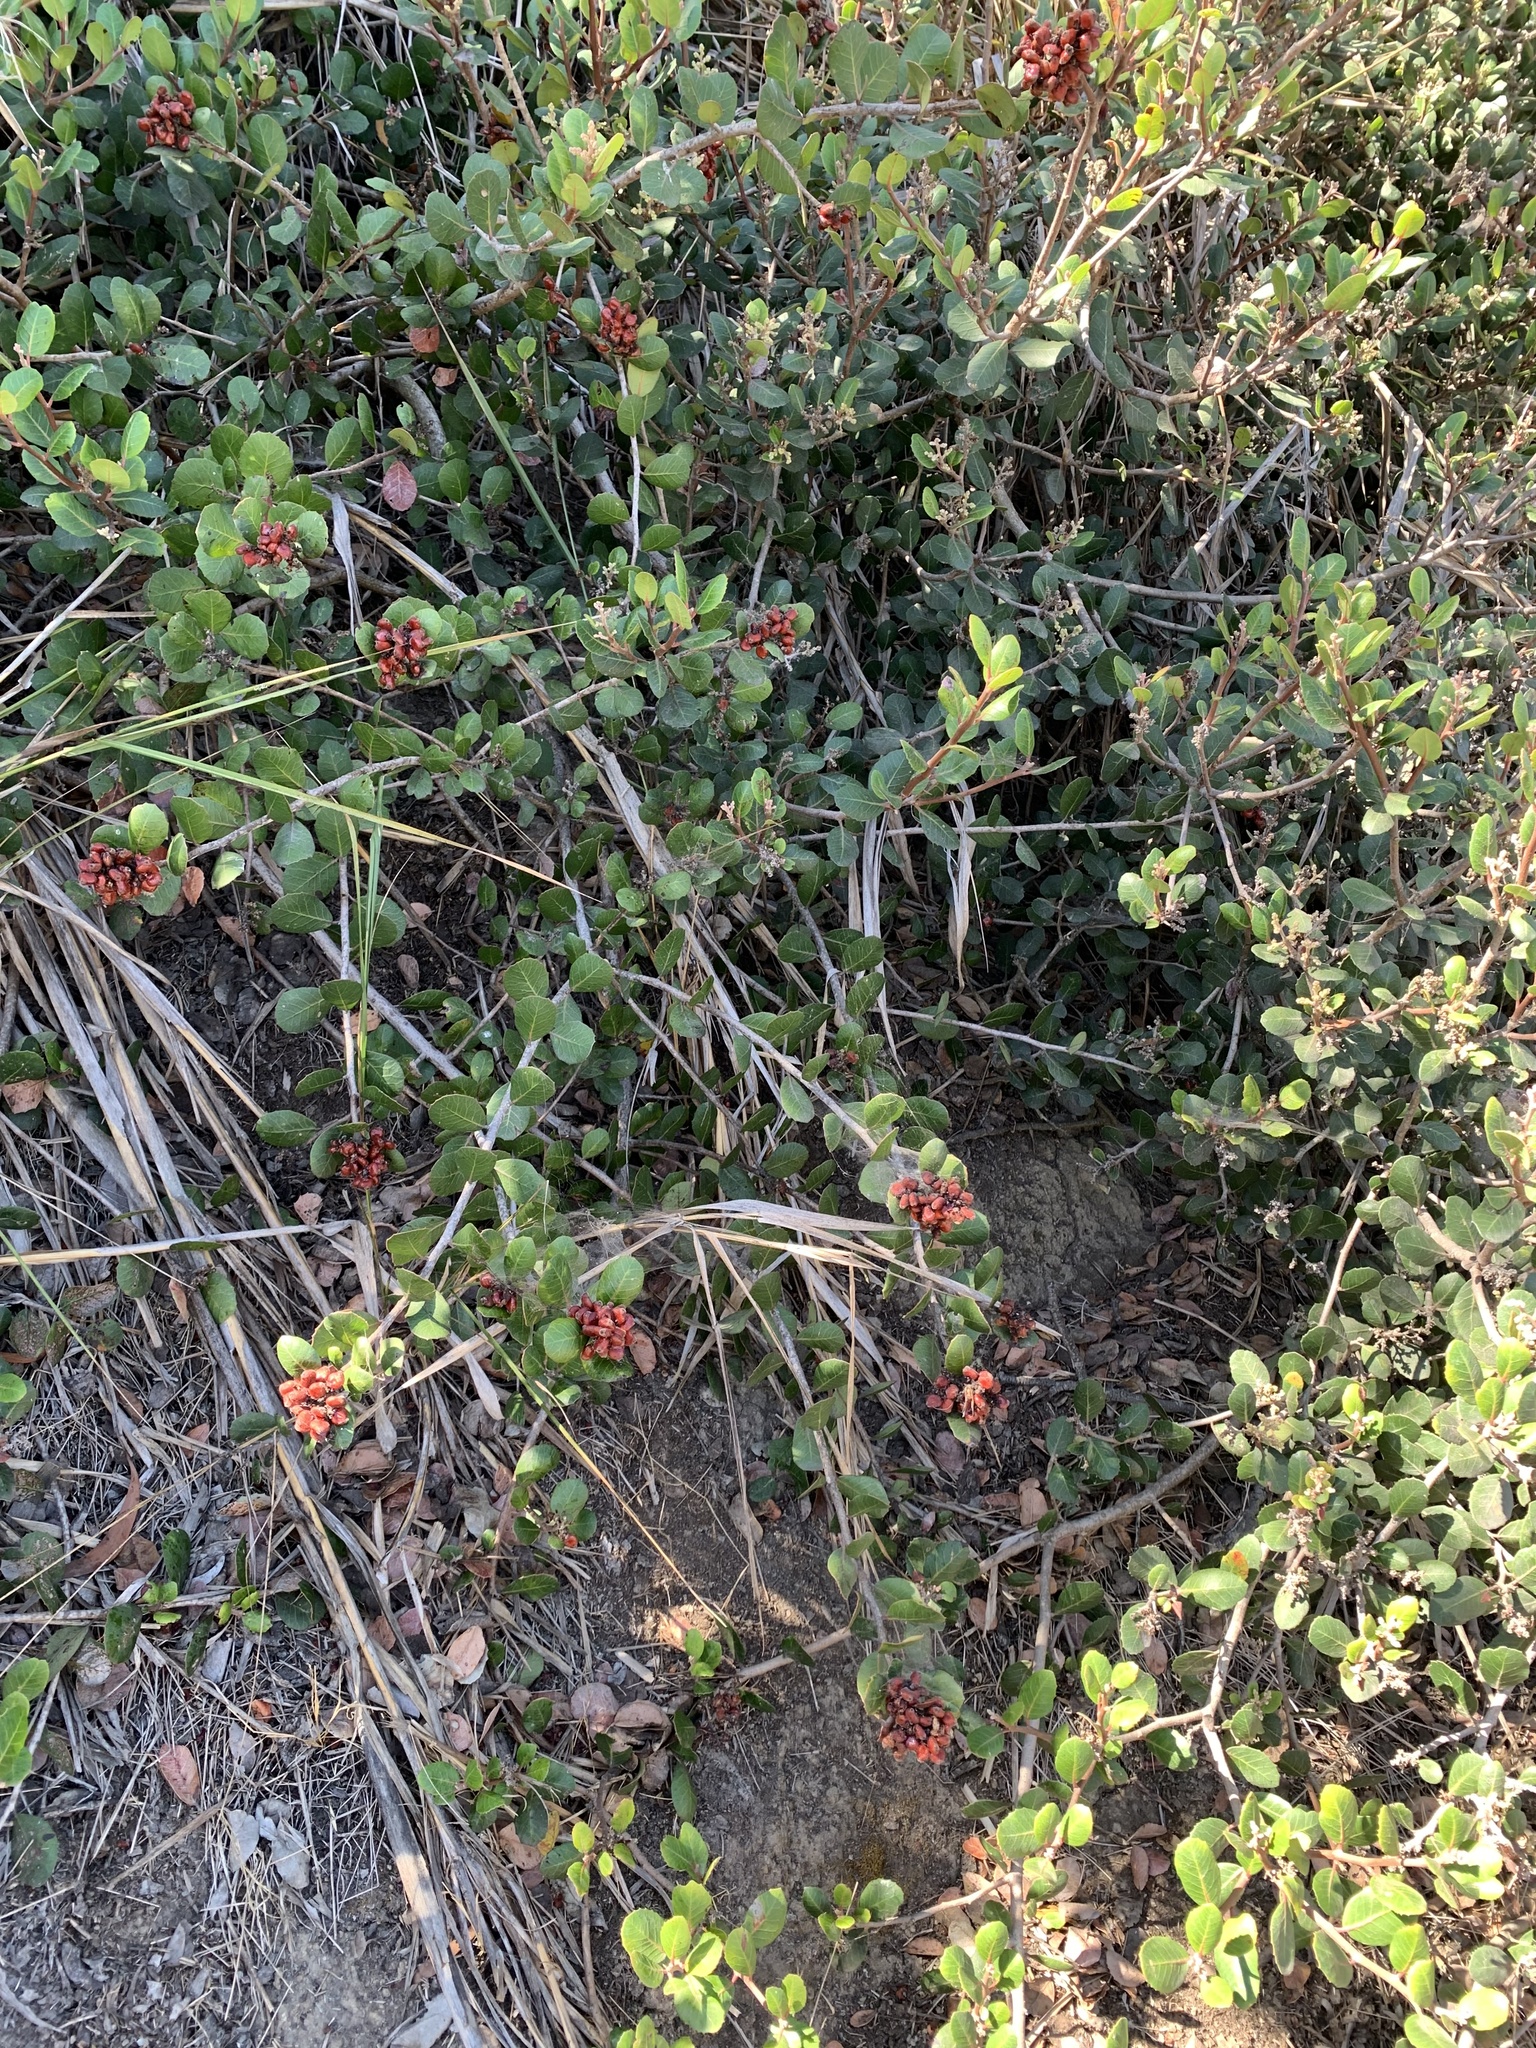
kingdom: Plantae
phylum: Tracheophyta
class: Magnoliopsida
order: Sapindales
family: Anacardiaceae
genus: Rhus
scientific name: Rhus integrifolia
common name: Lemonade sumac
